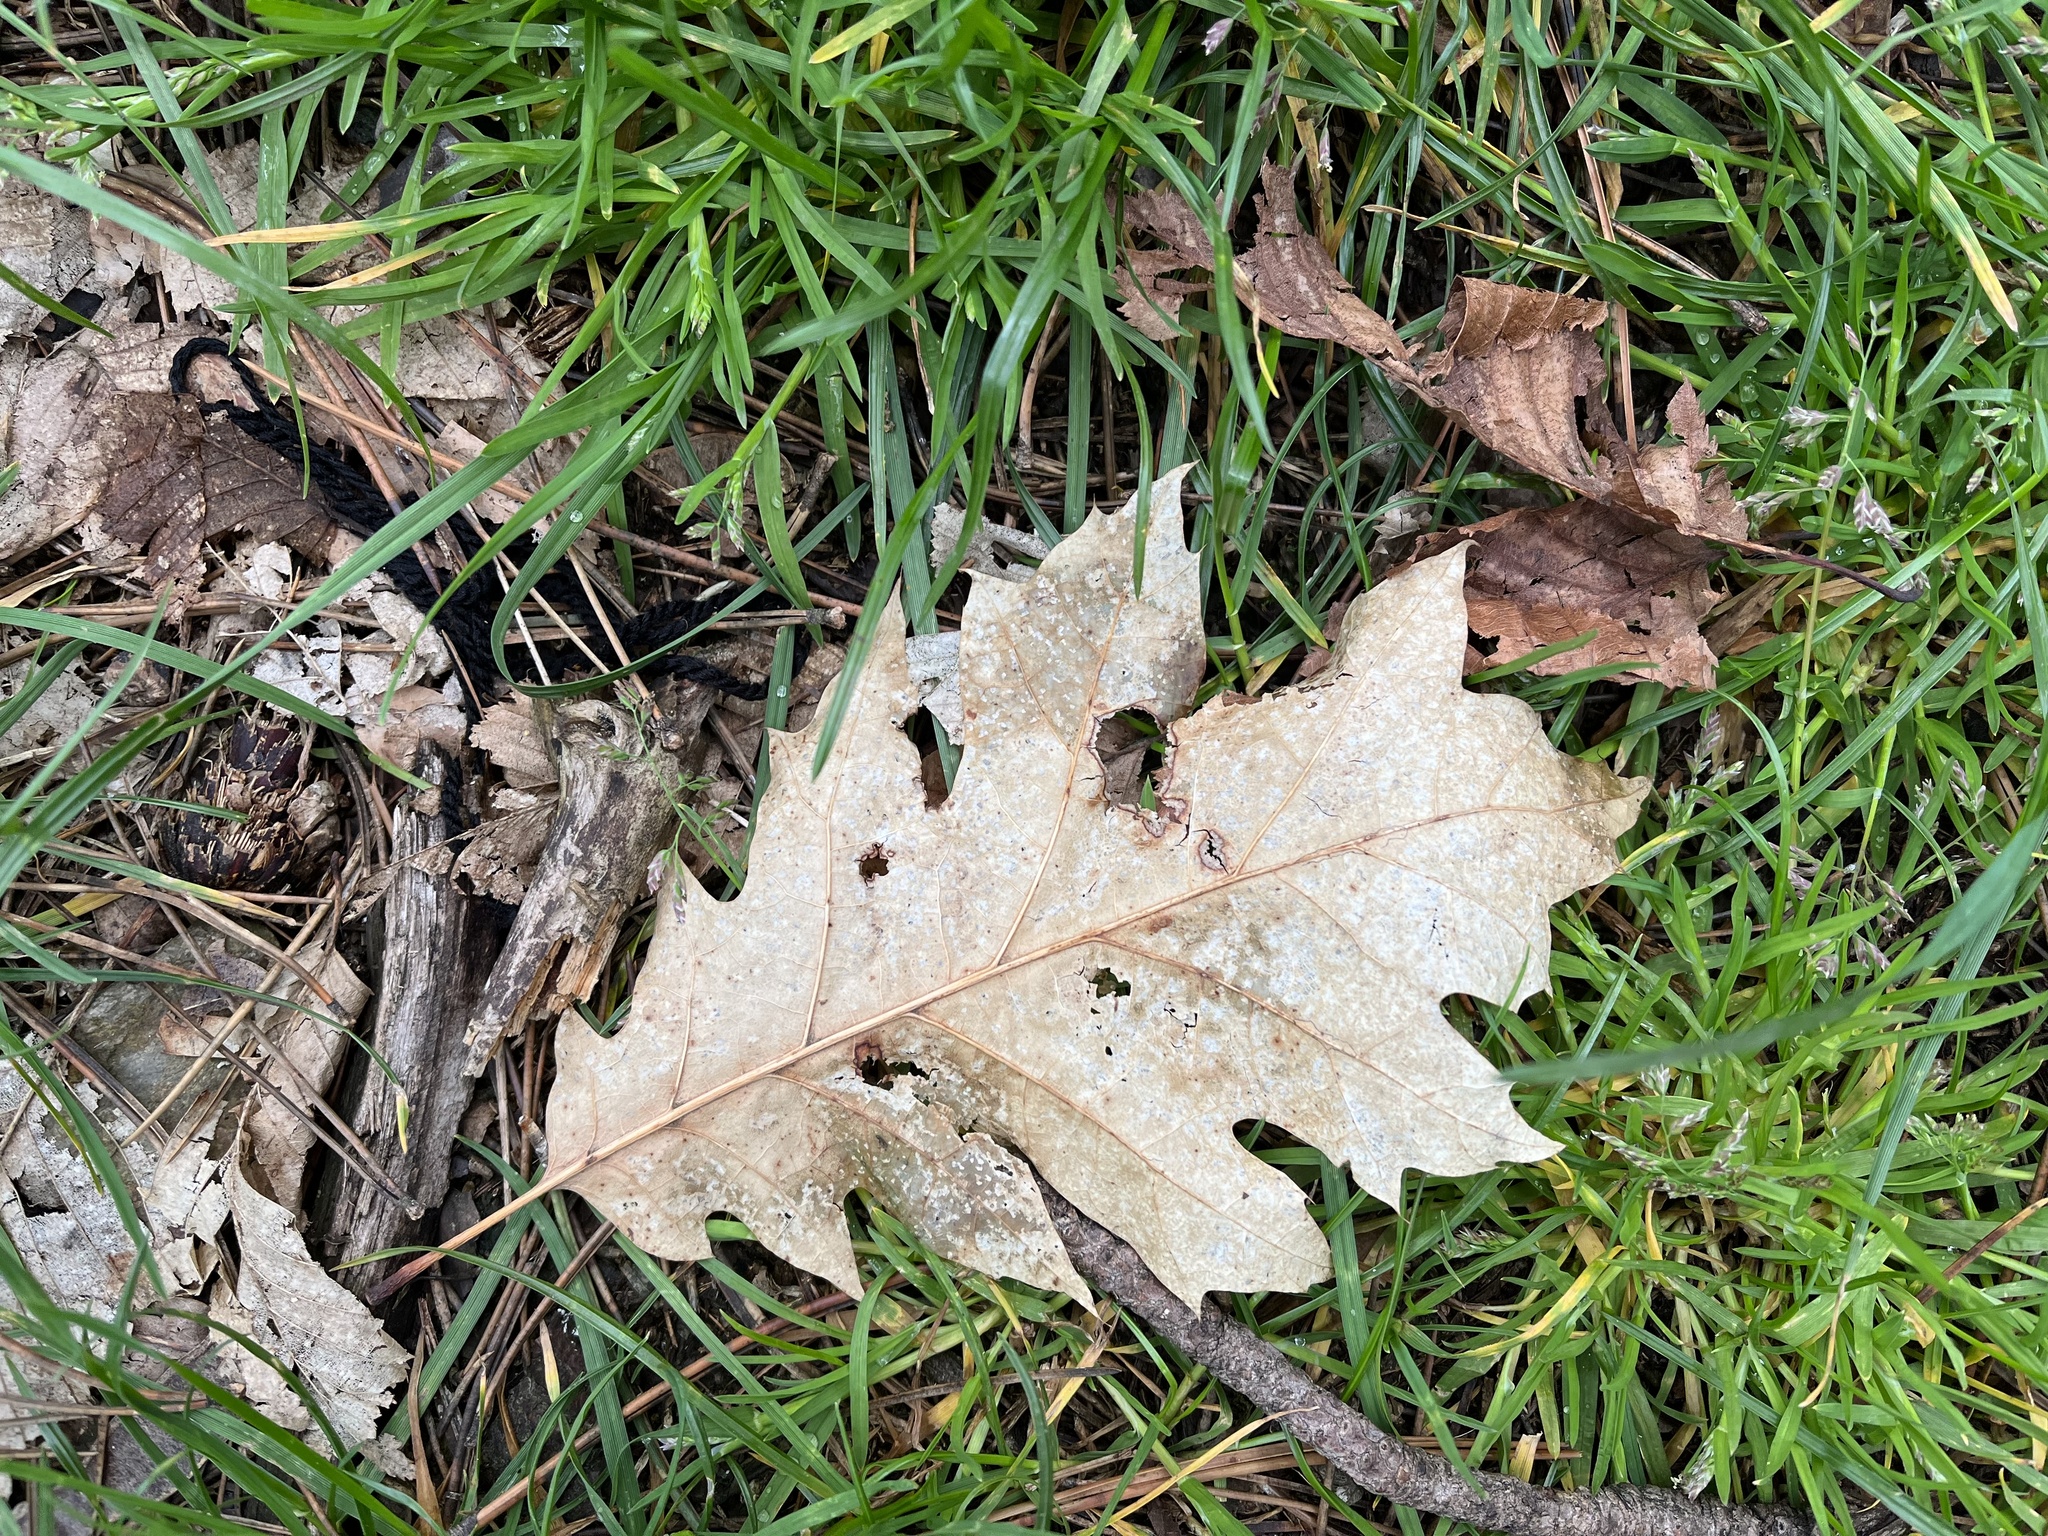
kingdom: Plantae
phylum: Tracheophyta
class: Magnoliopsida
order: Fagales
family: Fagaceae
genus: Quercus
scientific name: Quercus rubra
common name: Red oak
